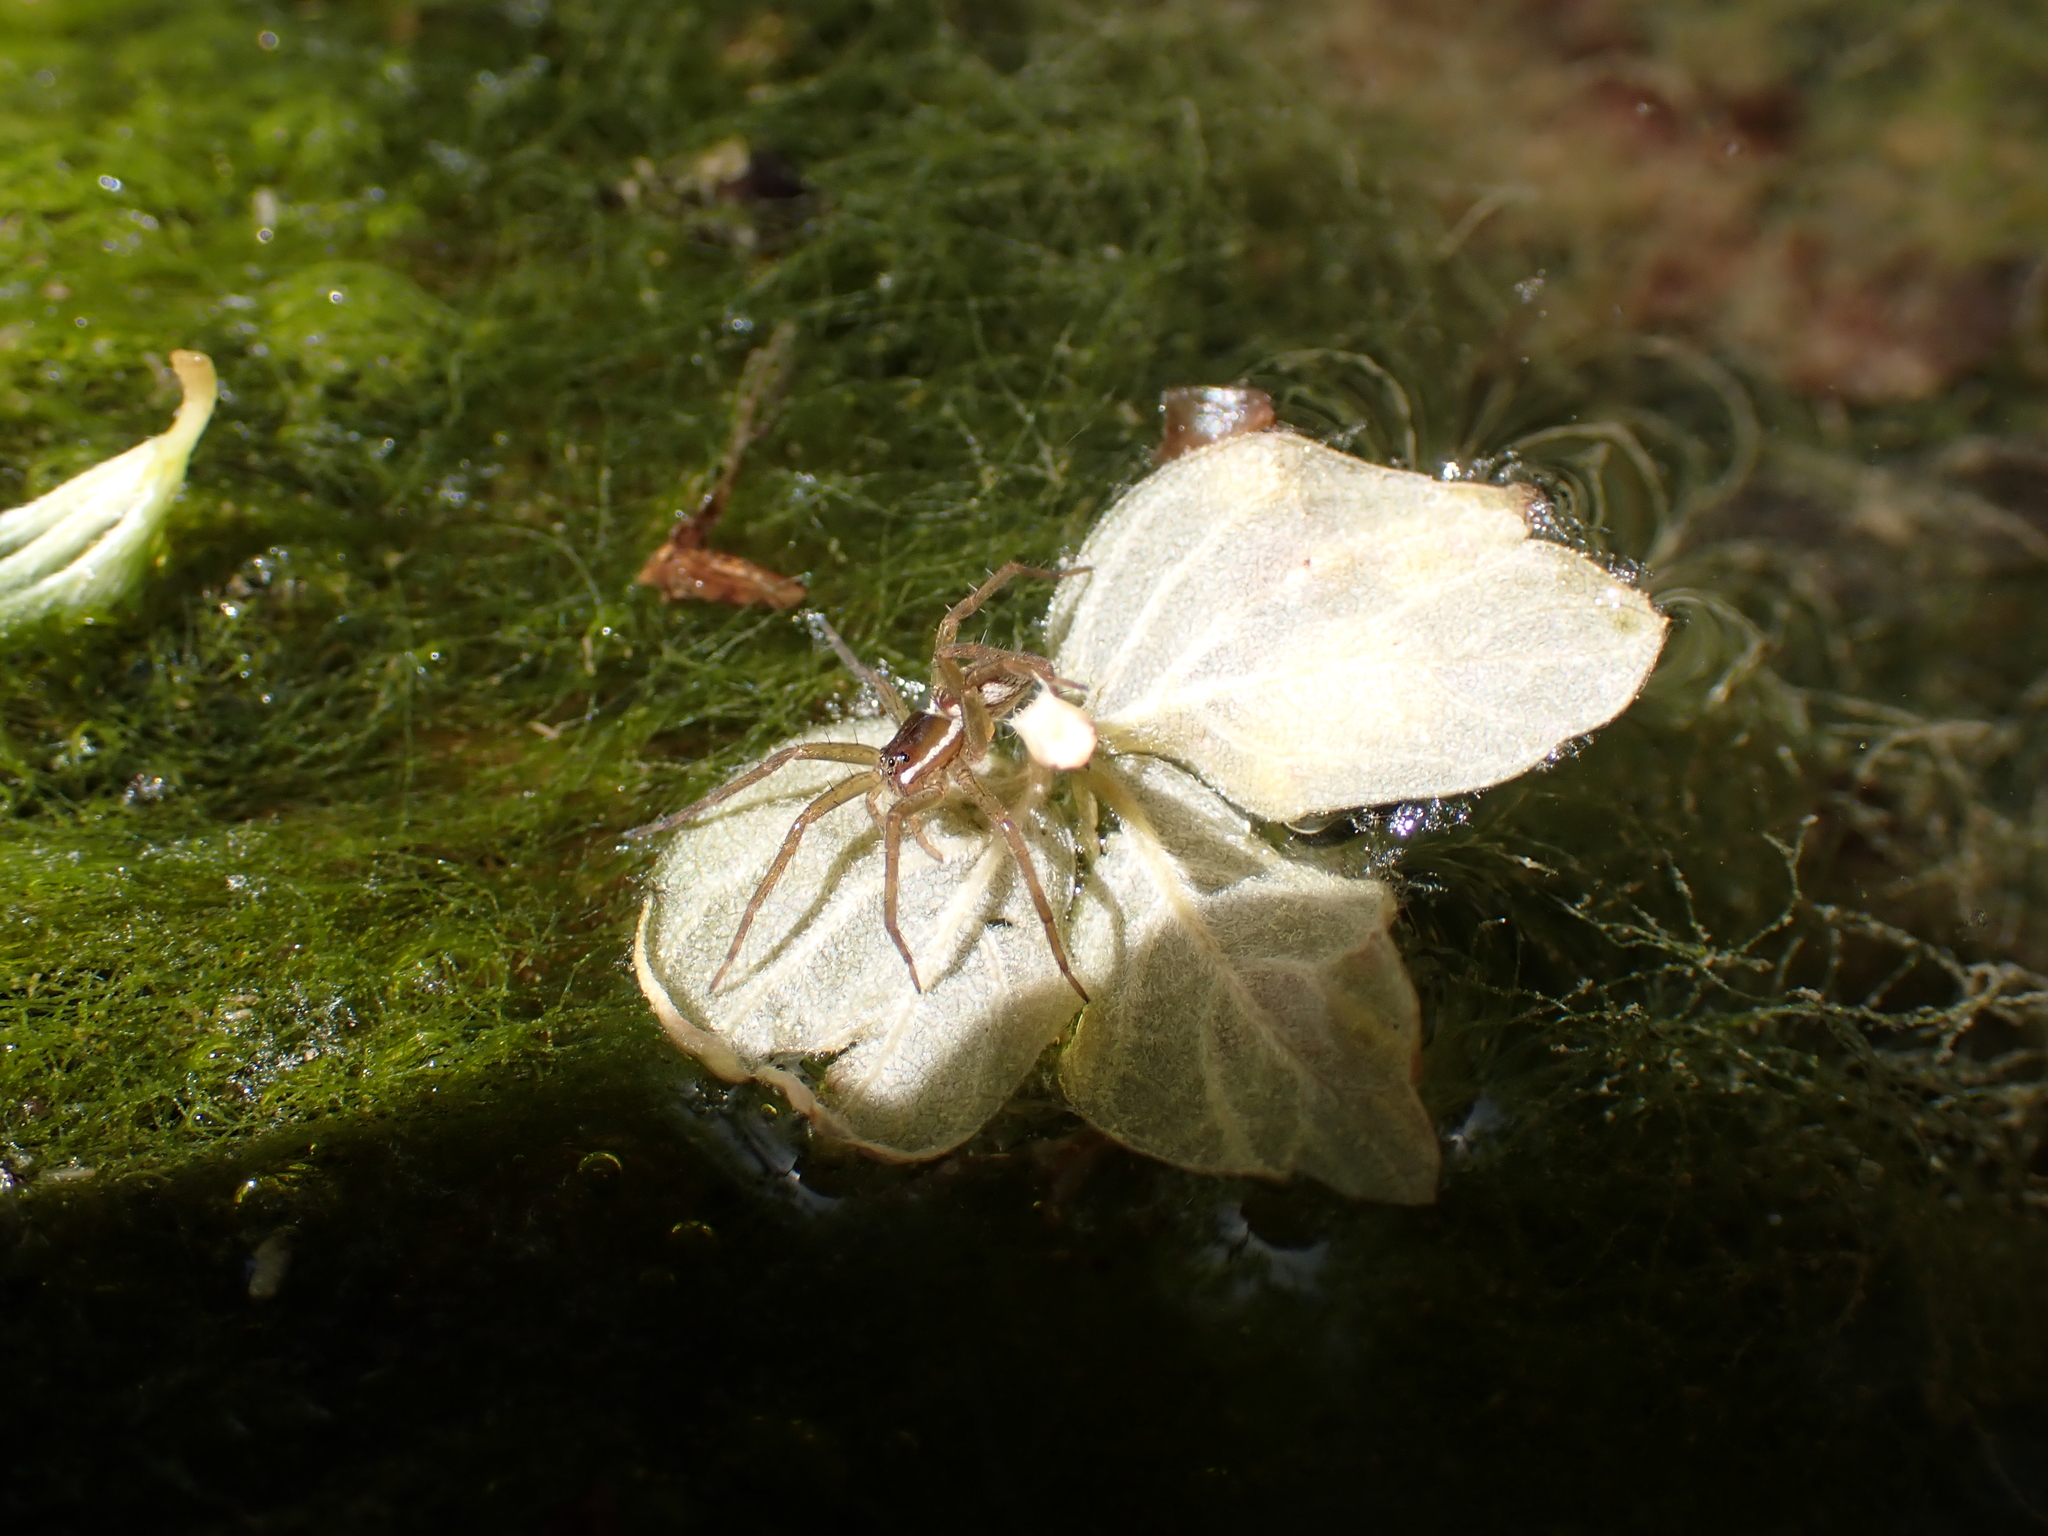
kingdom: Animalia
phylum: Arthropoda
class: Arachnida
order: Araneae
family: Pisauridae
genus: Dolomedes
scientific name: Dolomedes triton
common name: Six-spotted fishing spider
